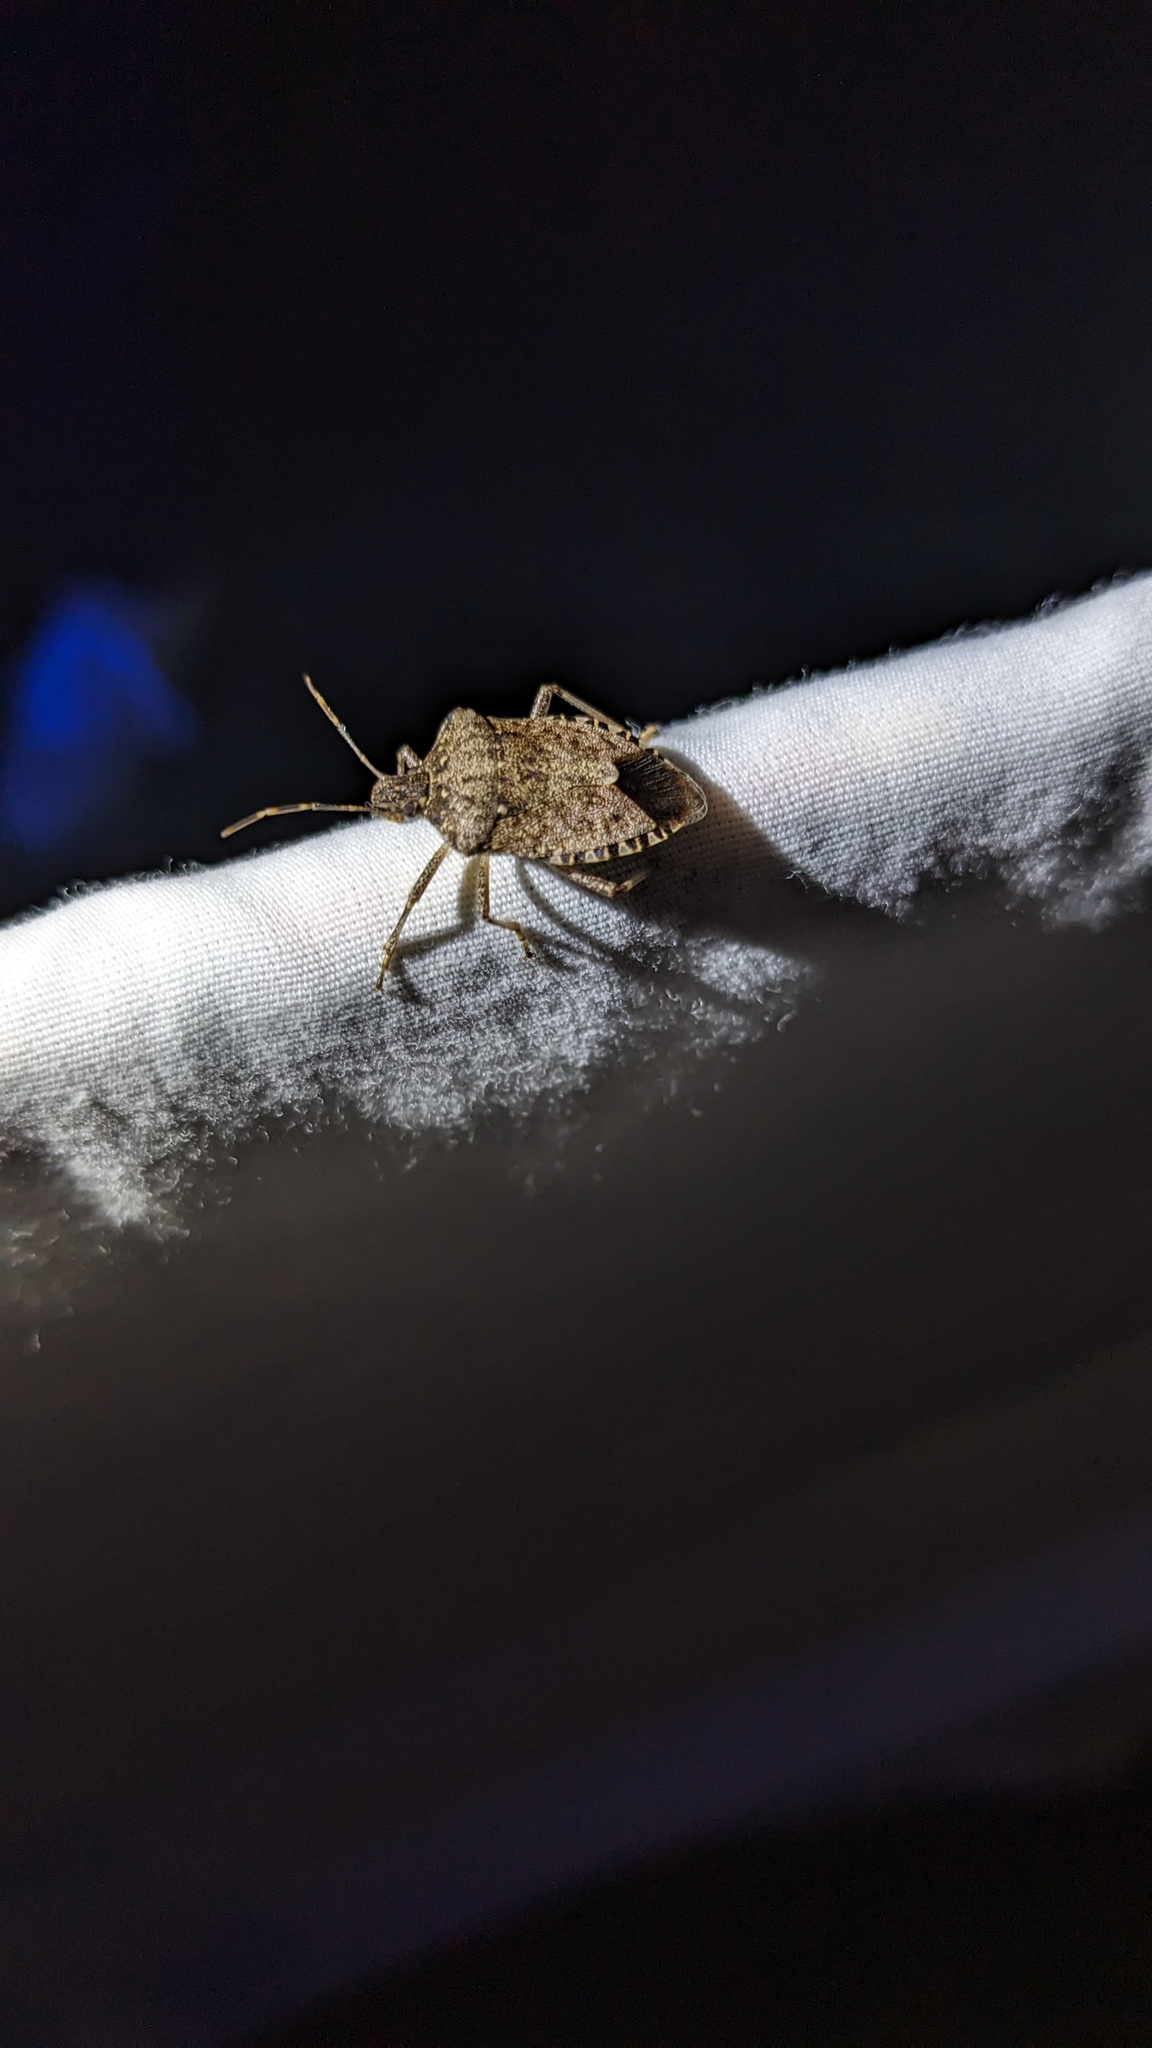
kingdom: Animalia
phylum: Arthropoda
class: Insecta
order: Hemiptera
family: Pentatomidae
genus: Halyomorpha
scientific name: Halyomorpha halys
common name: Brown marmorated stink bug
